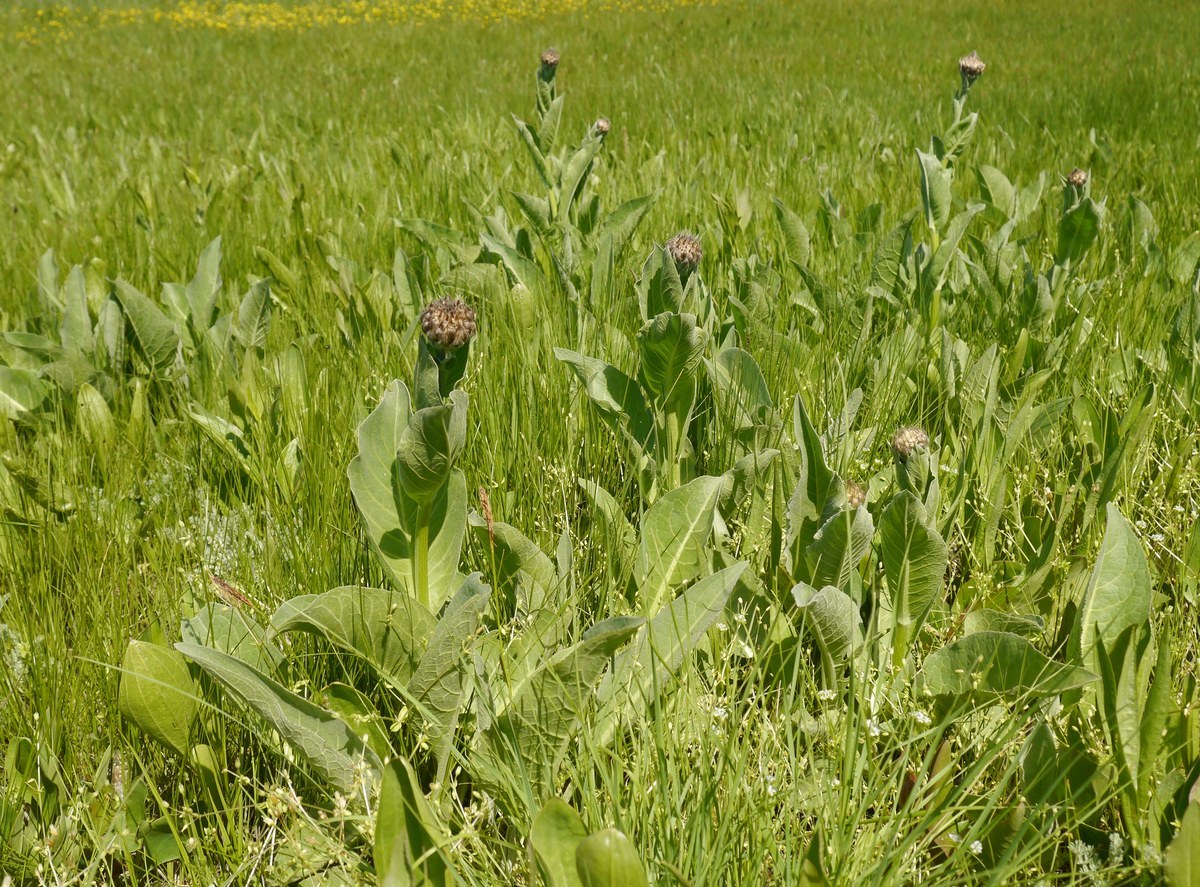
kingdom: Plantae
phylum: Tracheophyta
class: Magnoliopsida
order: Asterales
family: Asteraceae
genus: Leuzea
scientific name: Leuzea carthamoides
